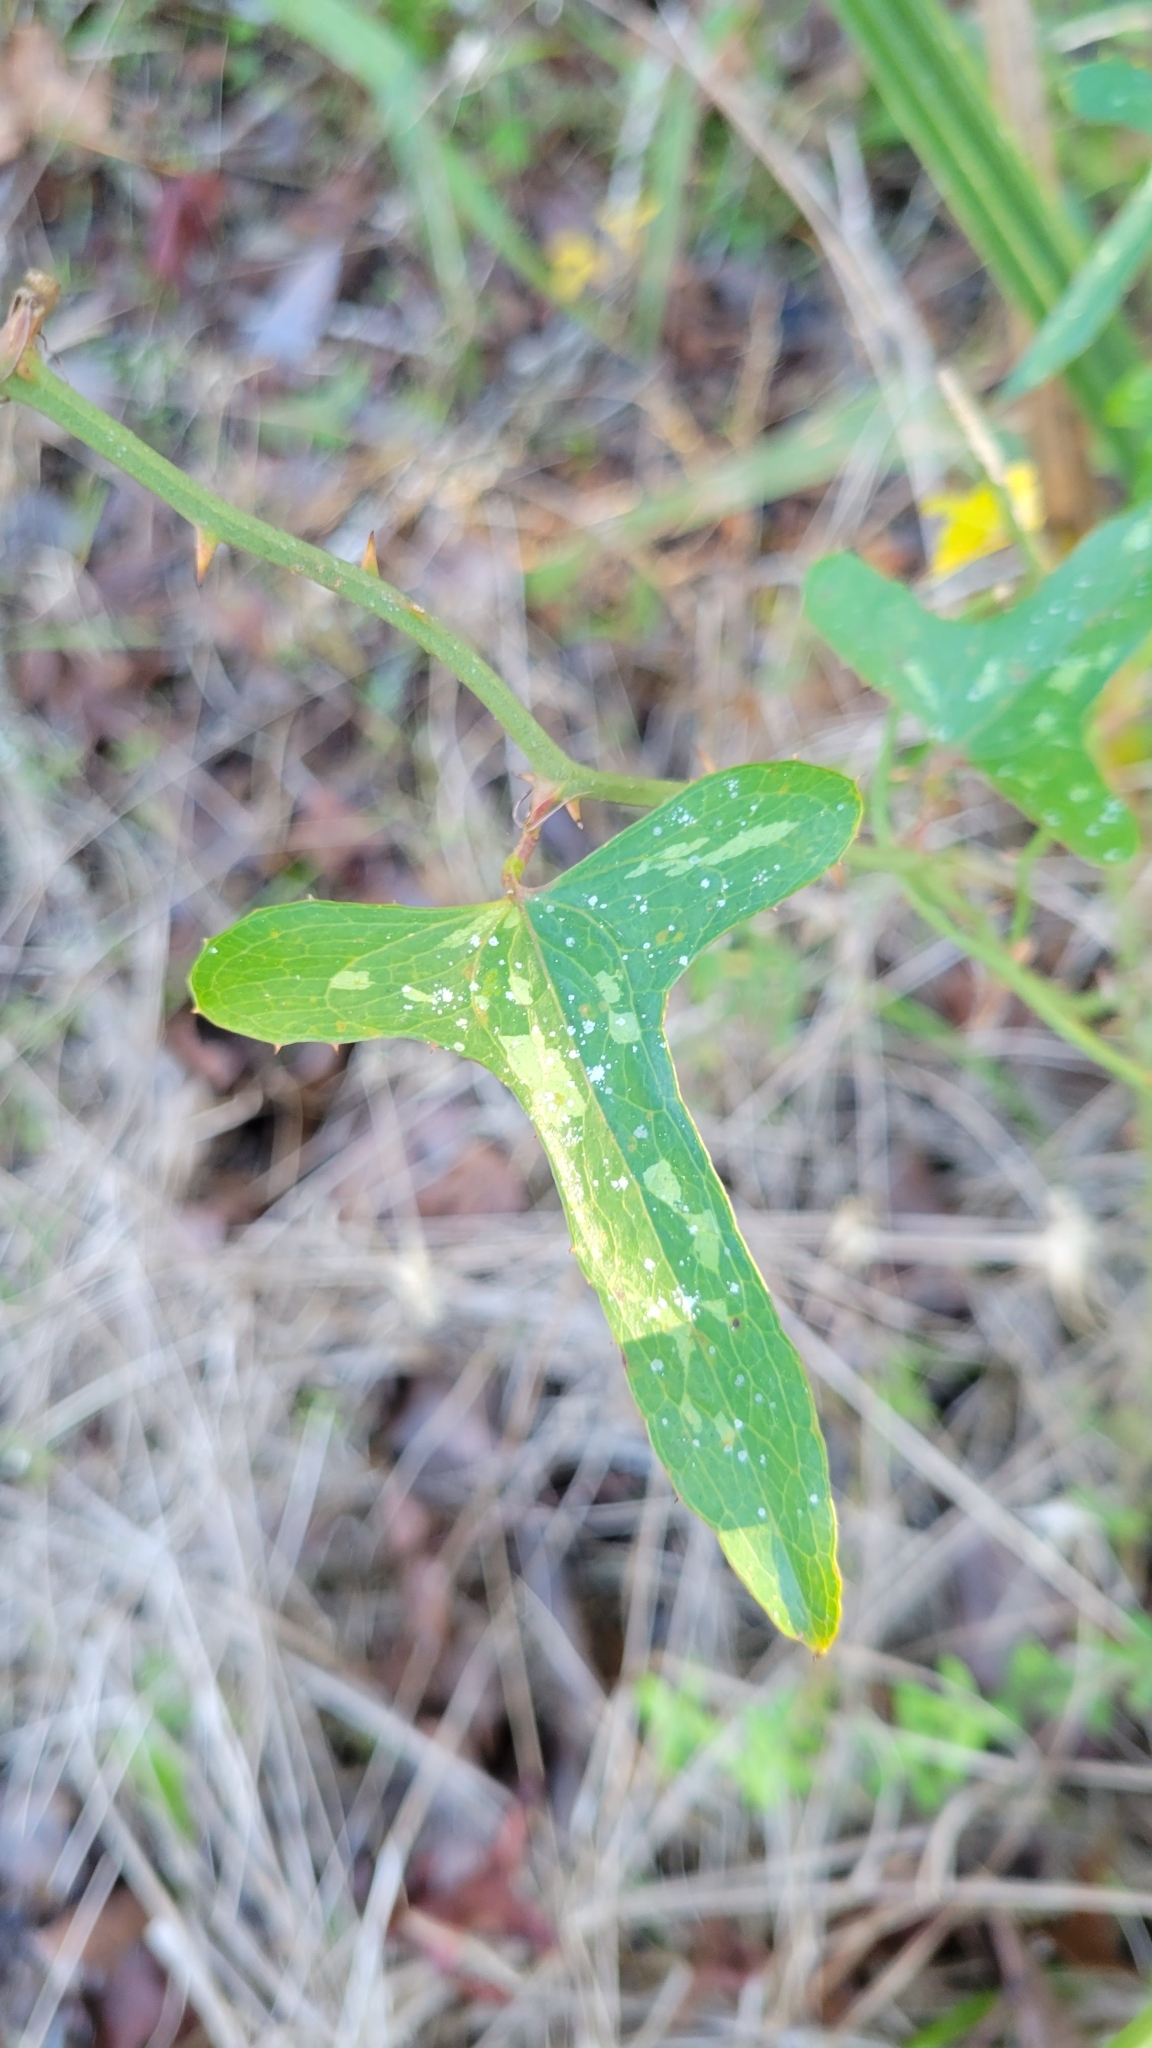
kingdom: Plantae
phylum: Tracheophyta
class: Liliopsida
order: Liliales
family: Smilacaceae
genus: Smilax
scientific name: Smilax bona-nox
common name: Catbrier
